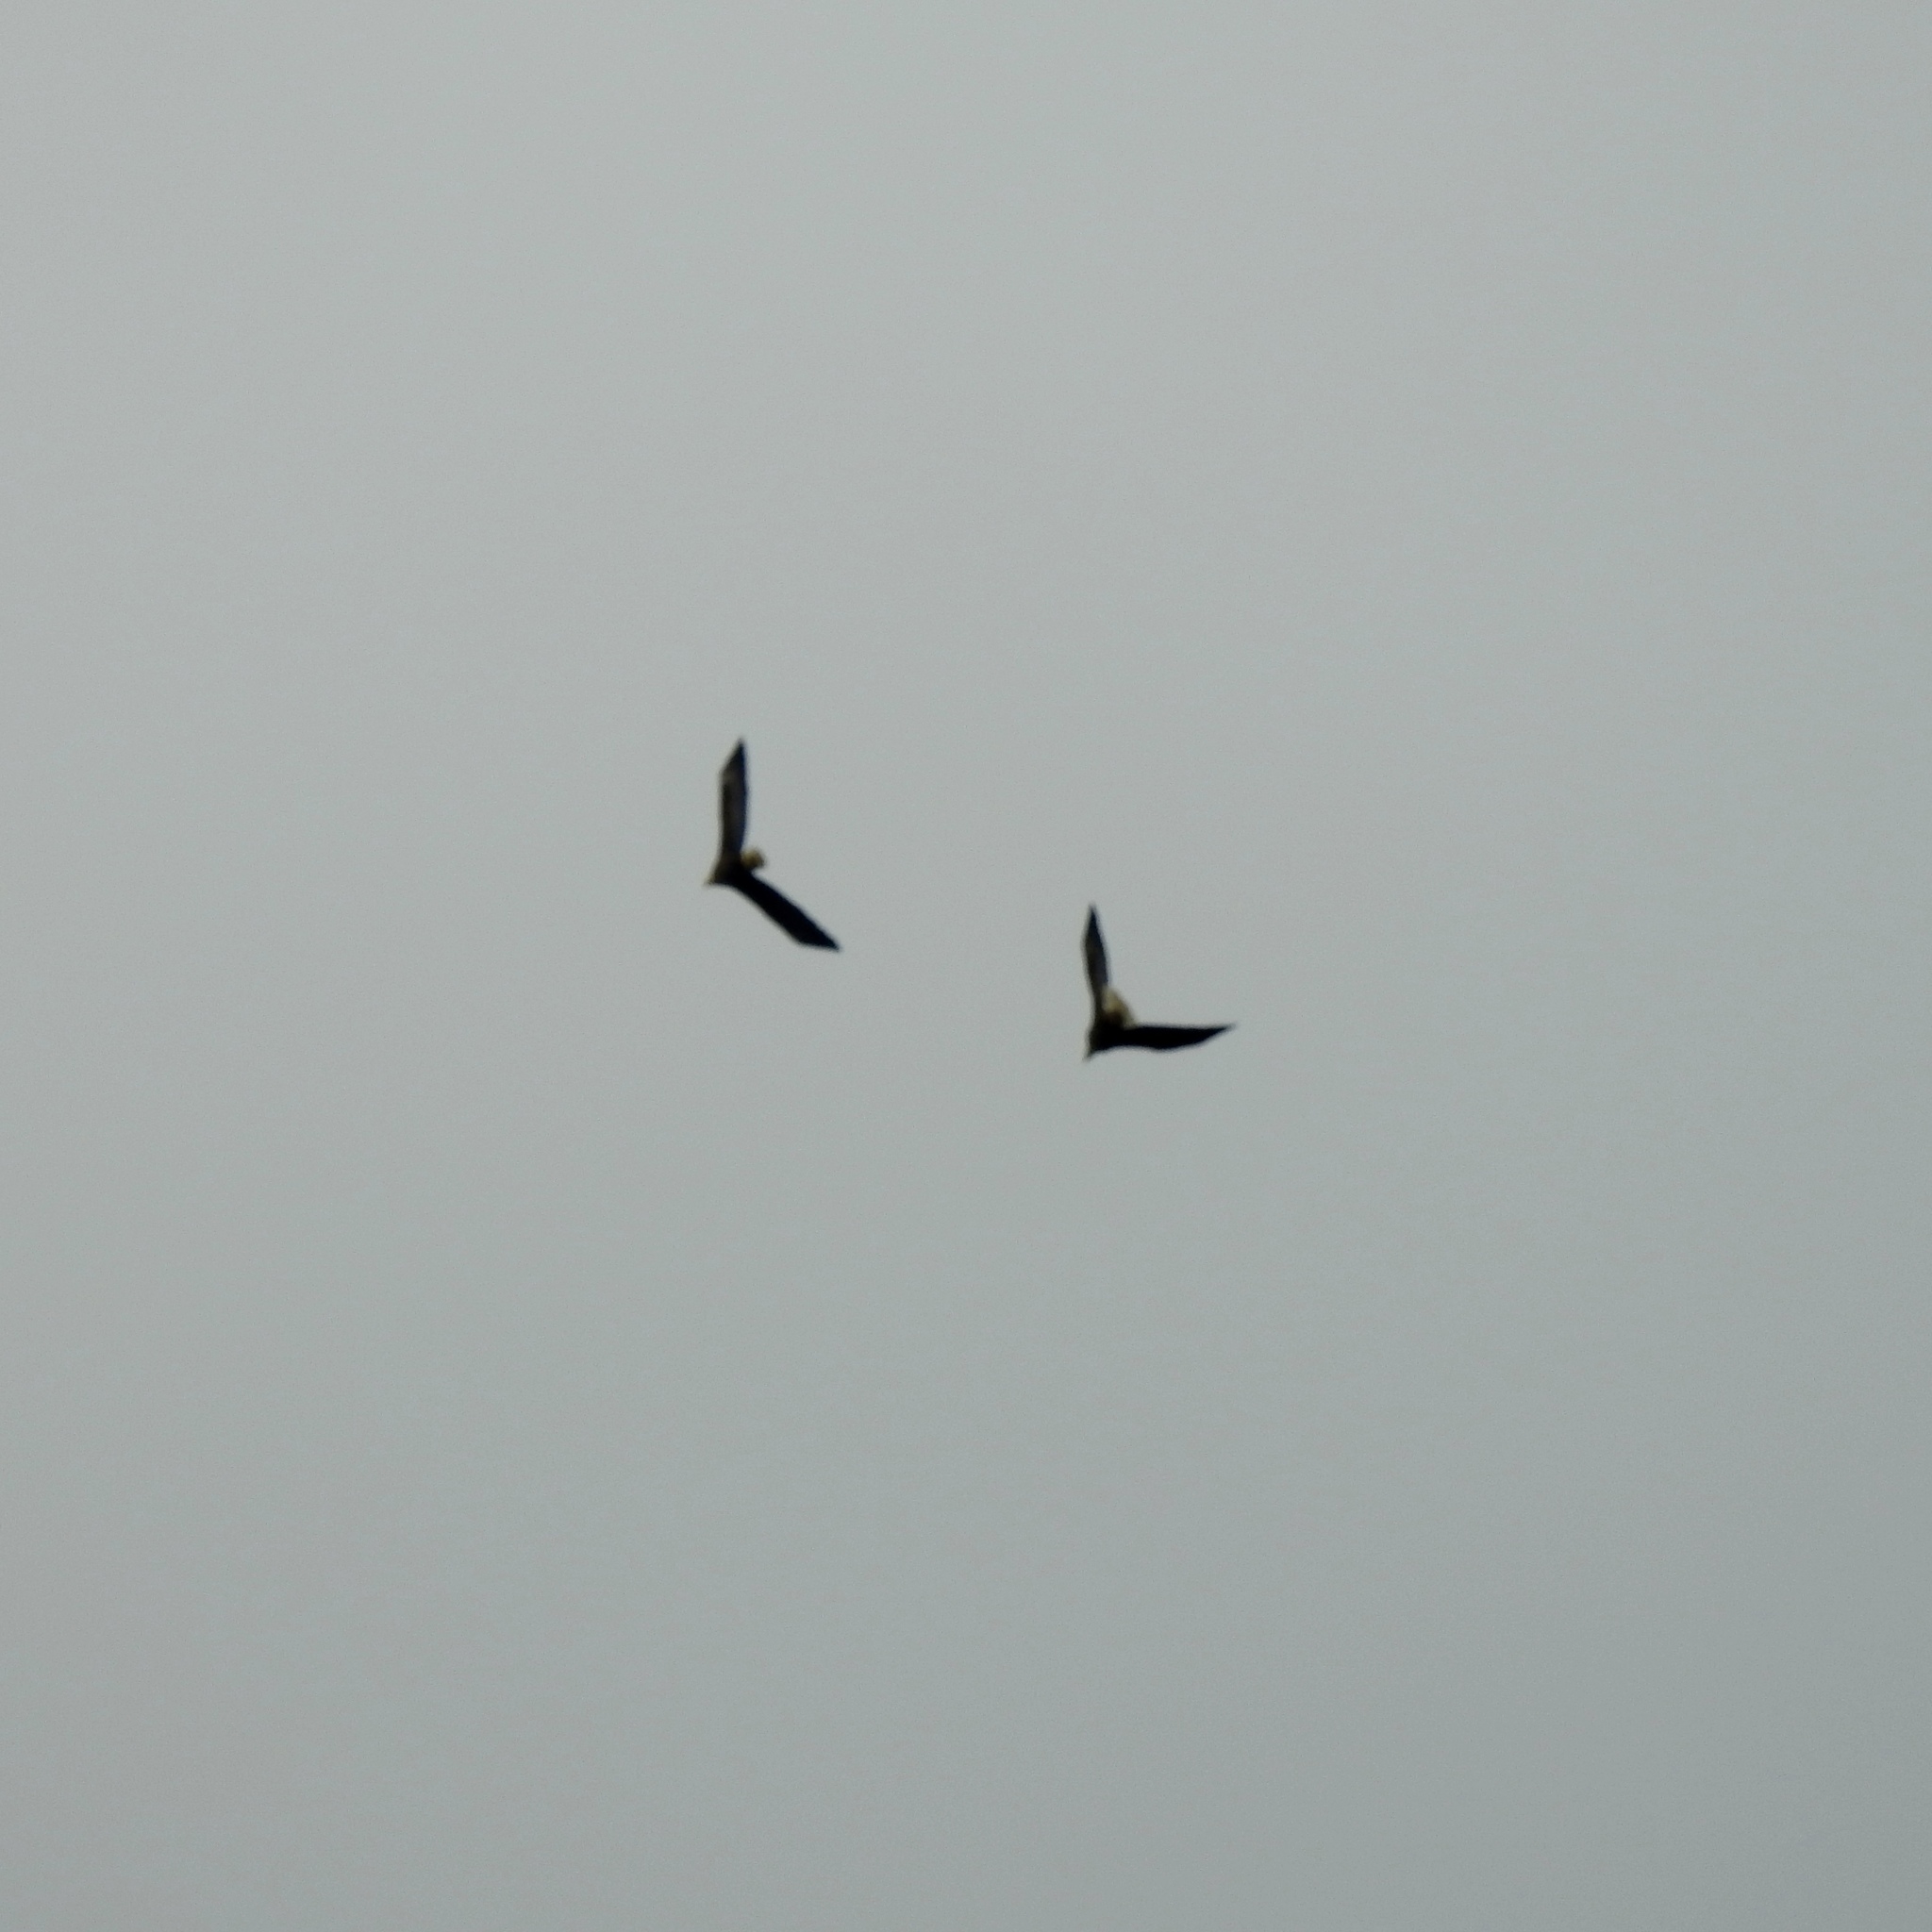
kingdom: Animalia
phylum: Chordata
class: Aves
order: Accipitriformes
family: Accipitridae
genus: Haliaeetus
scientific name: Haliaeetus leucocephalus
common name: Bald eagle
